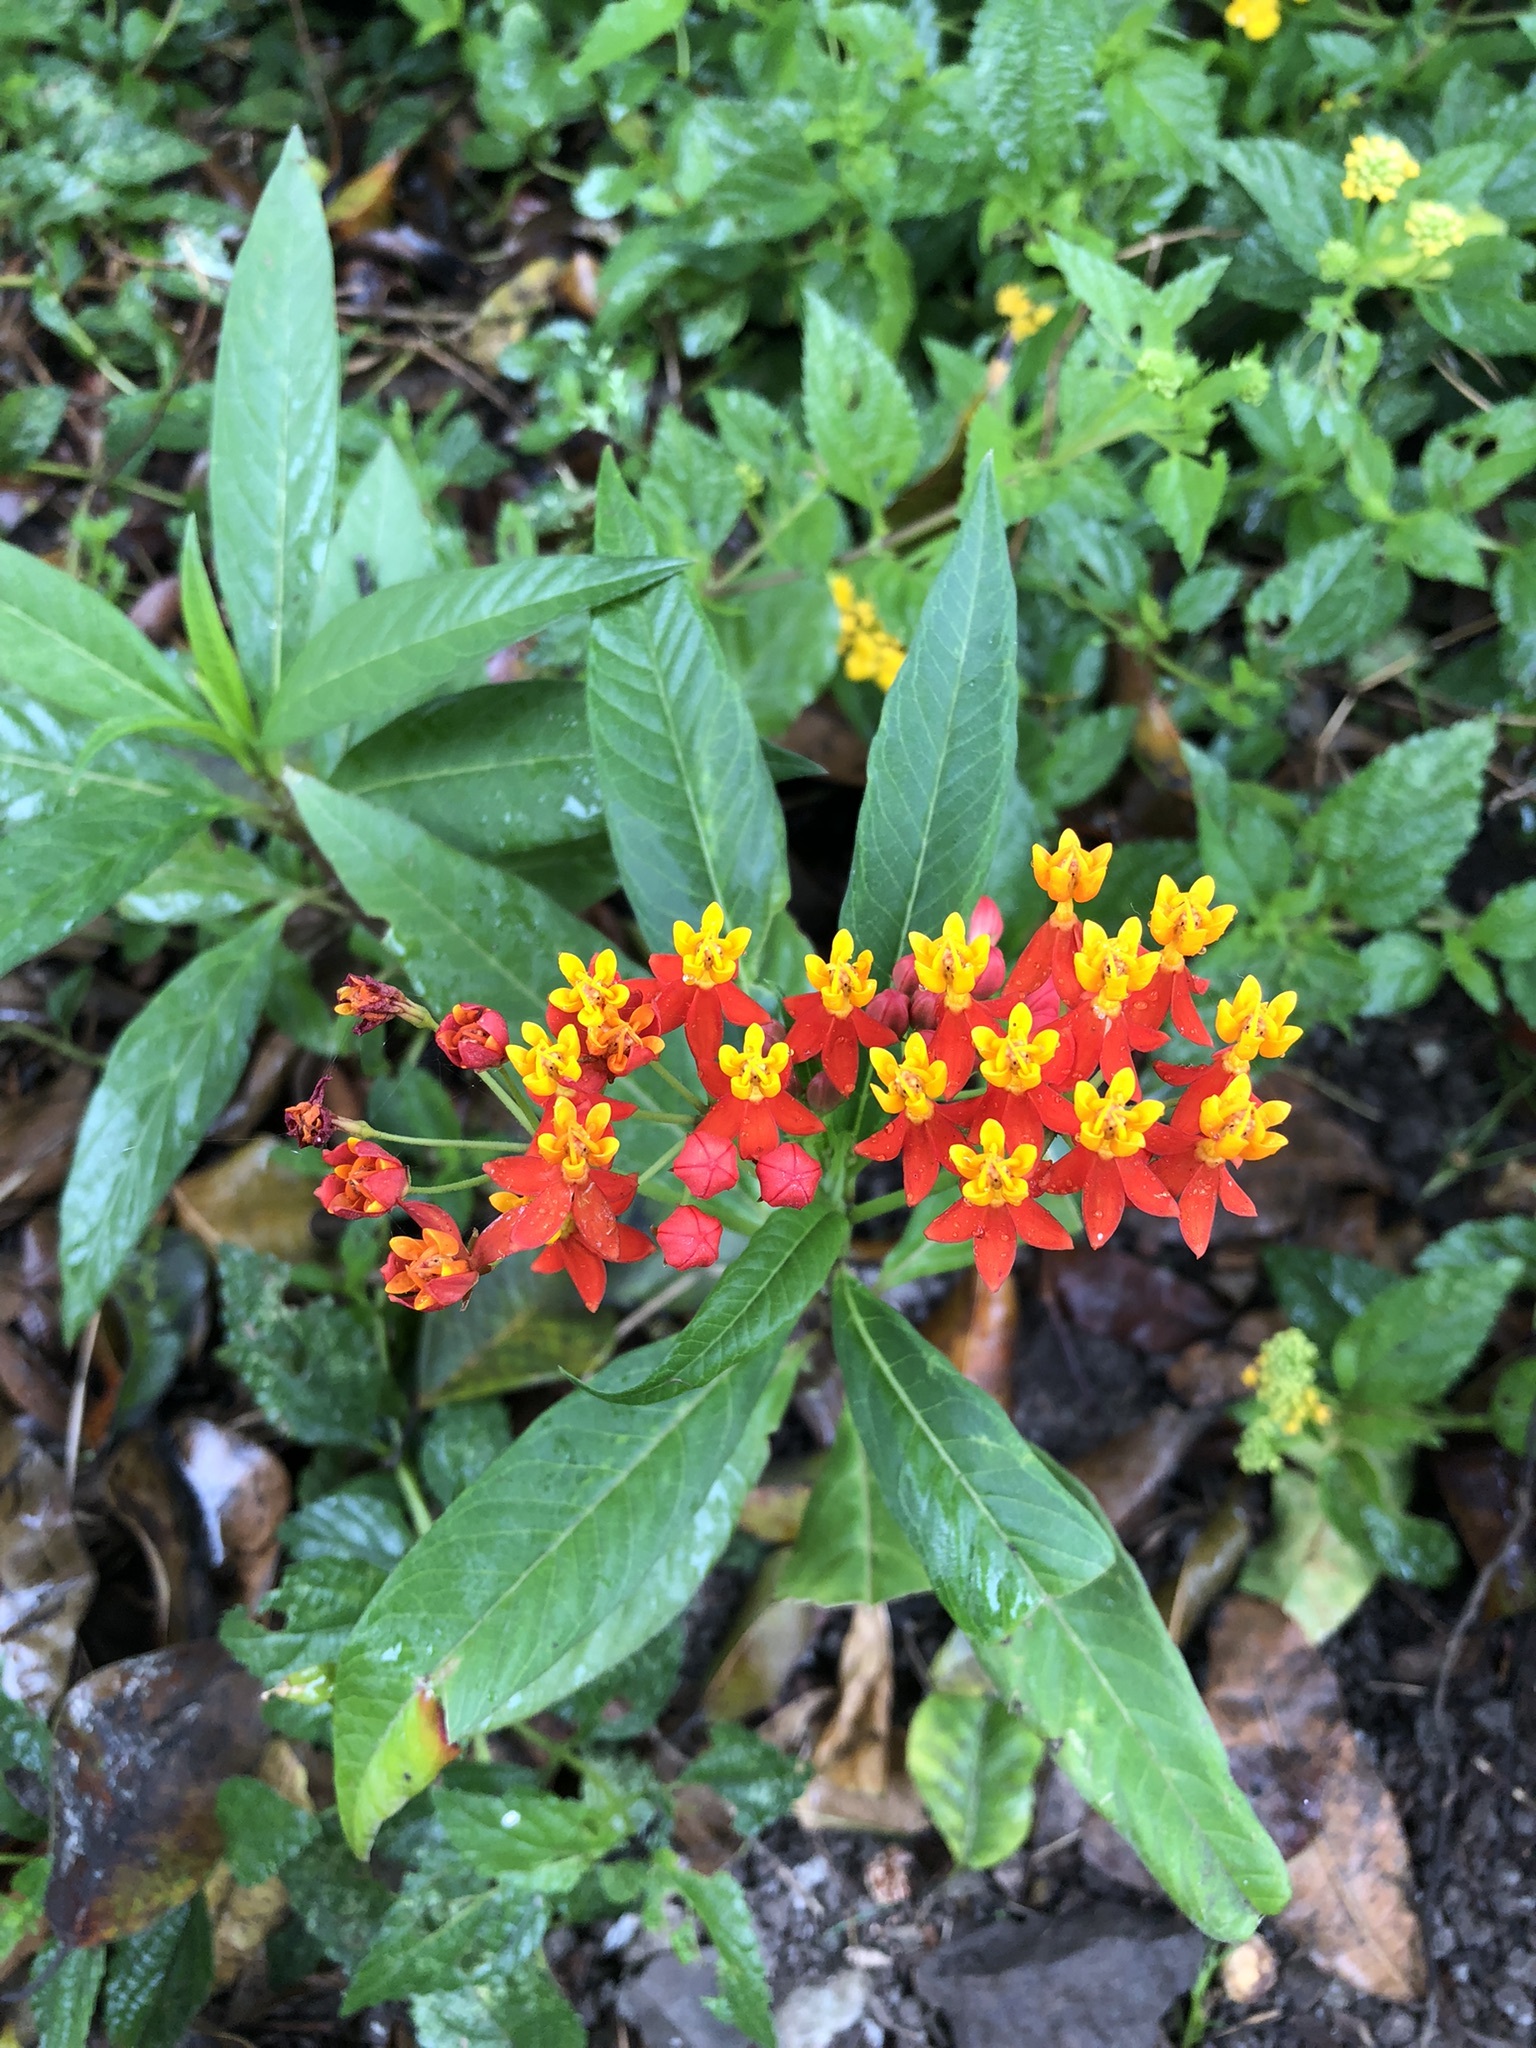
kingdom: Plantae
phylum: Tracheophyta
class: Magnoliopsida
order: Gentianales
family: Apocynaceae
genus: Asclepias
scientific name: Asclepias curassavica
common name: Bloodflower
